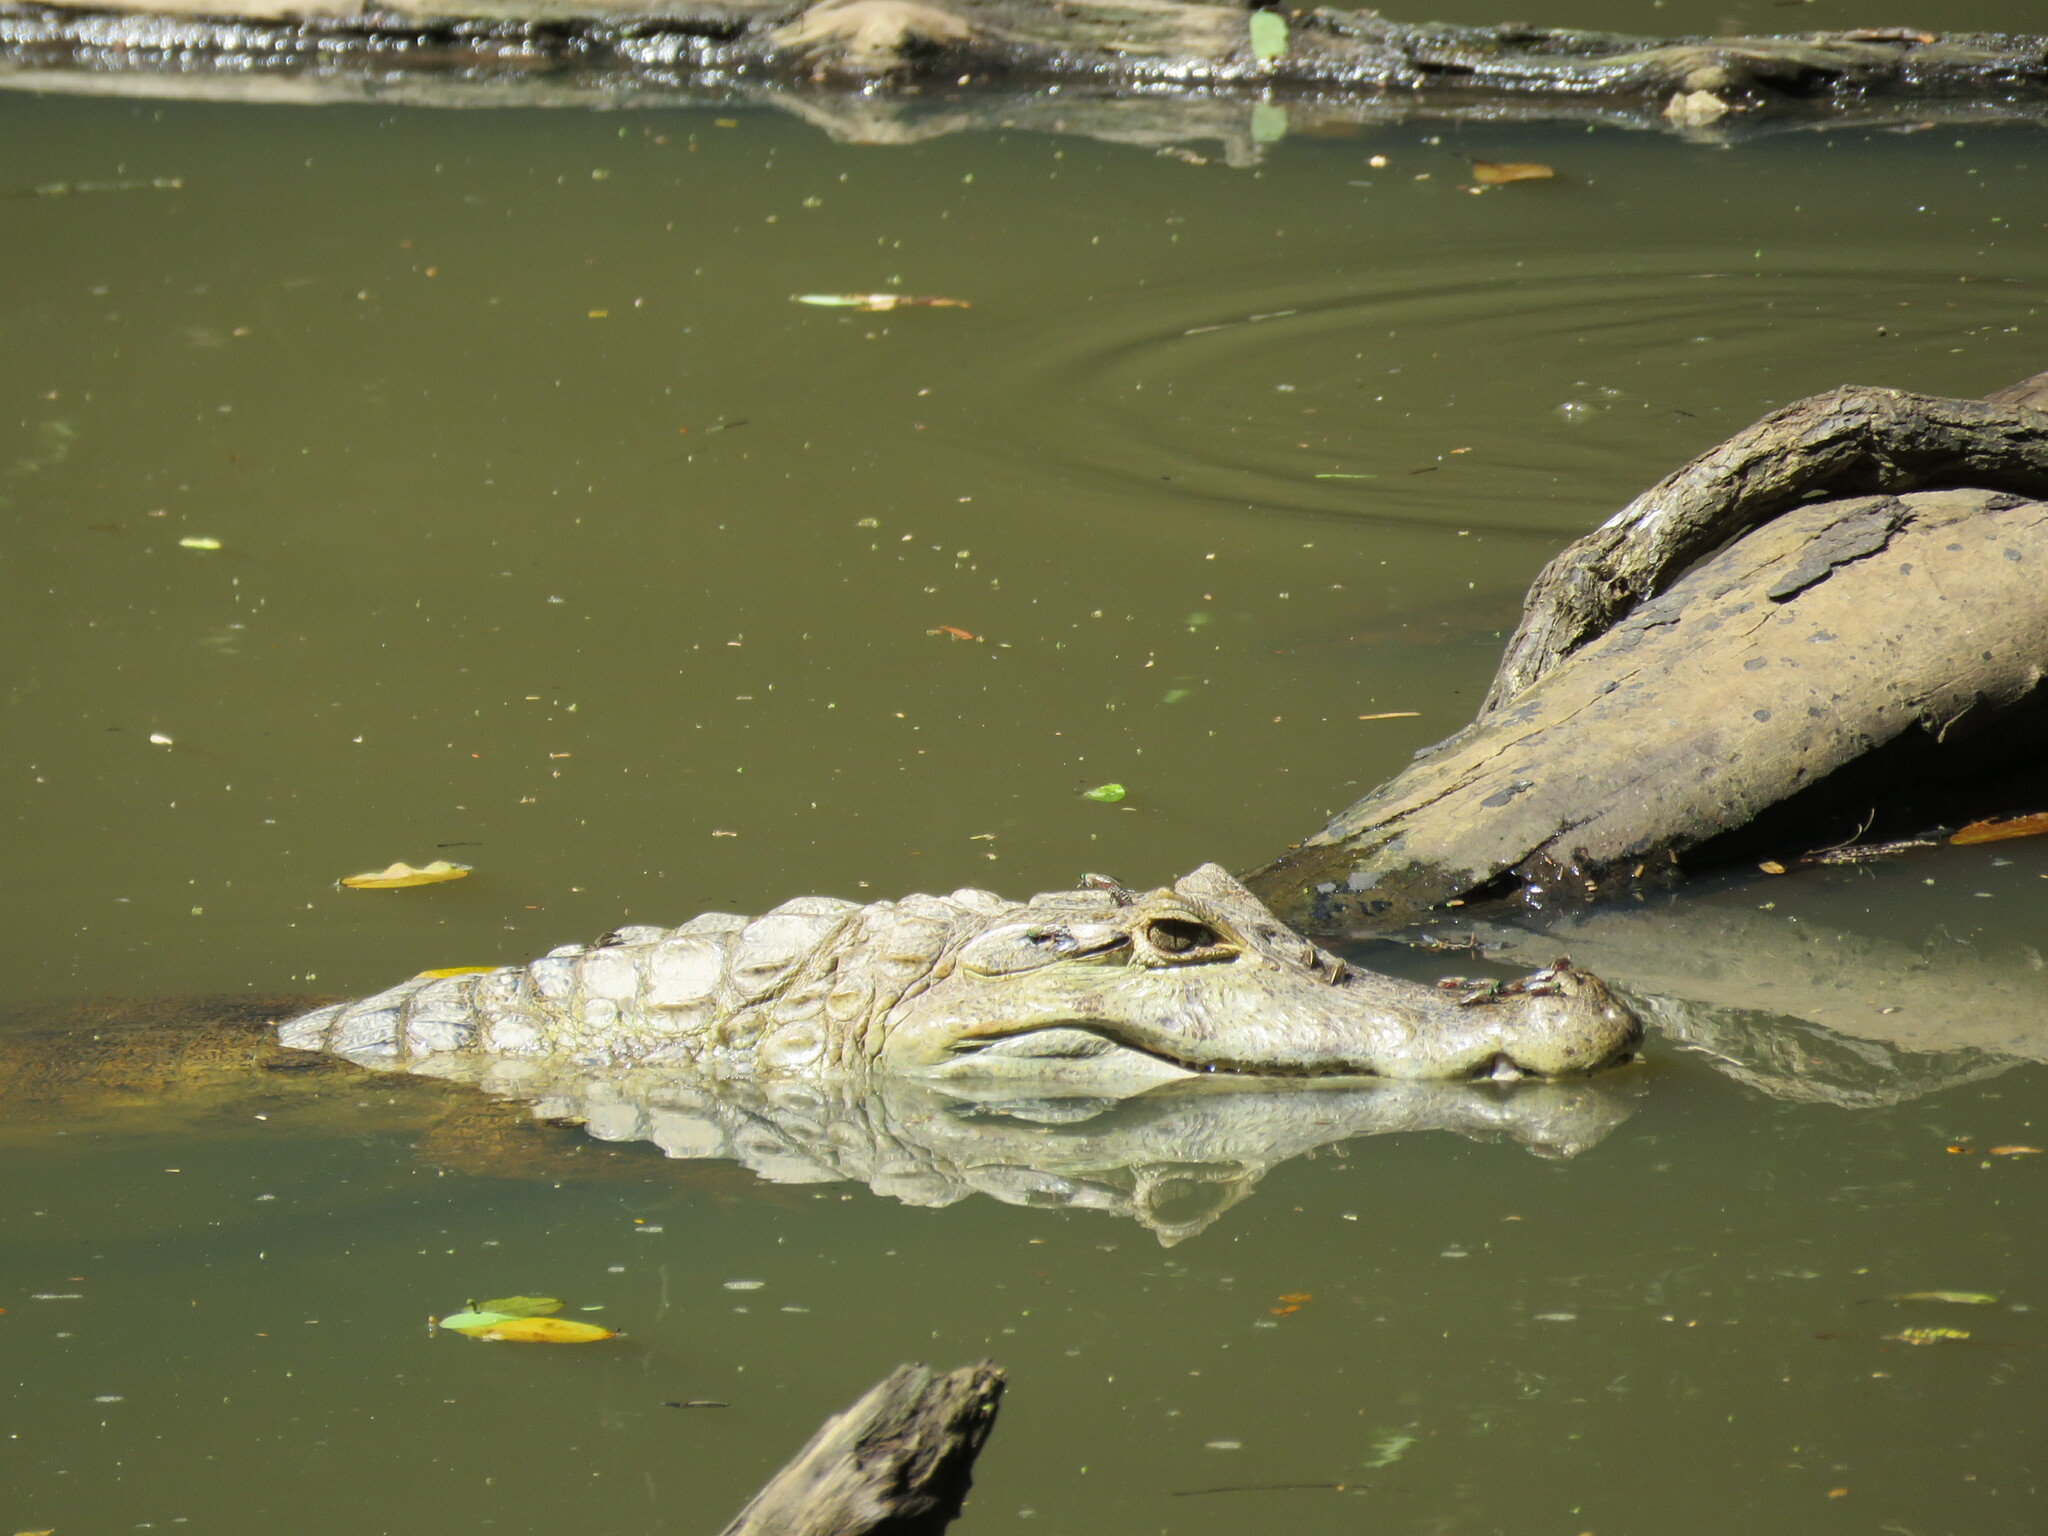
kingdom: Animalia
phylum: Chordata
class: Crocodylia
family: Alligatoridae
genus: Caiman
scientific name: Caiman yacare
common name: Yacare caiman
